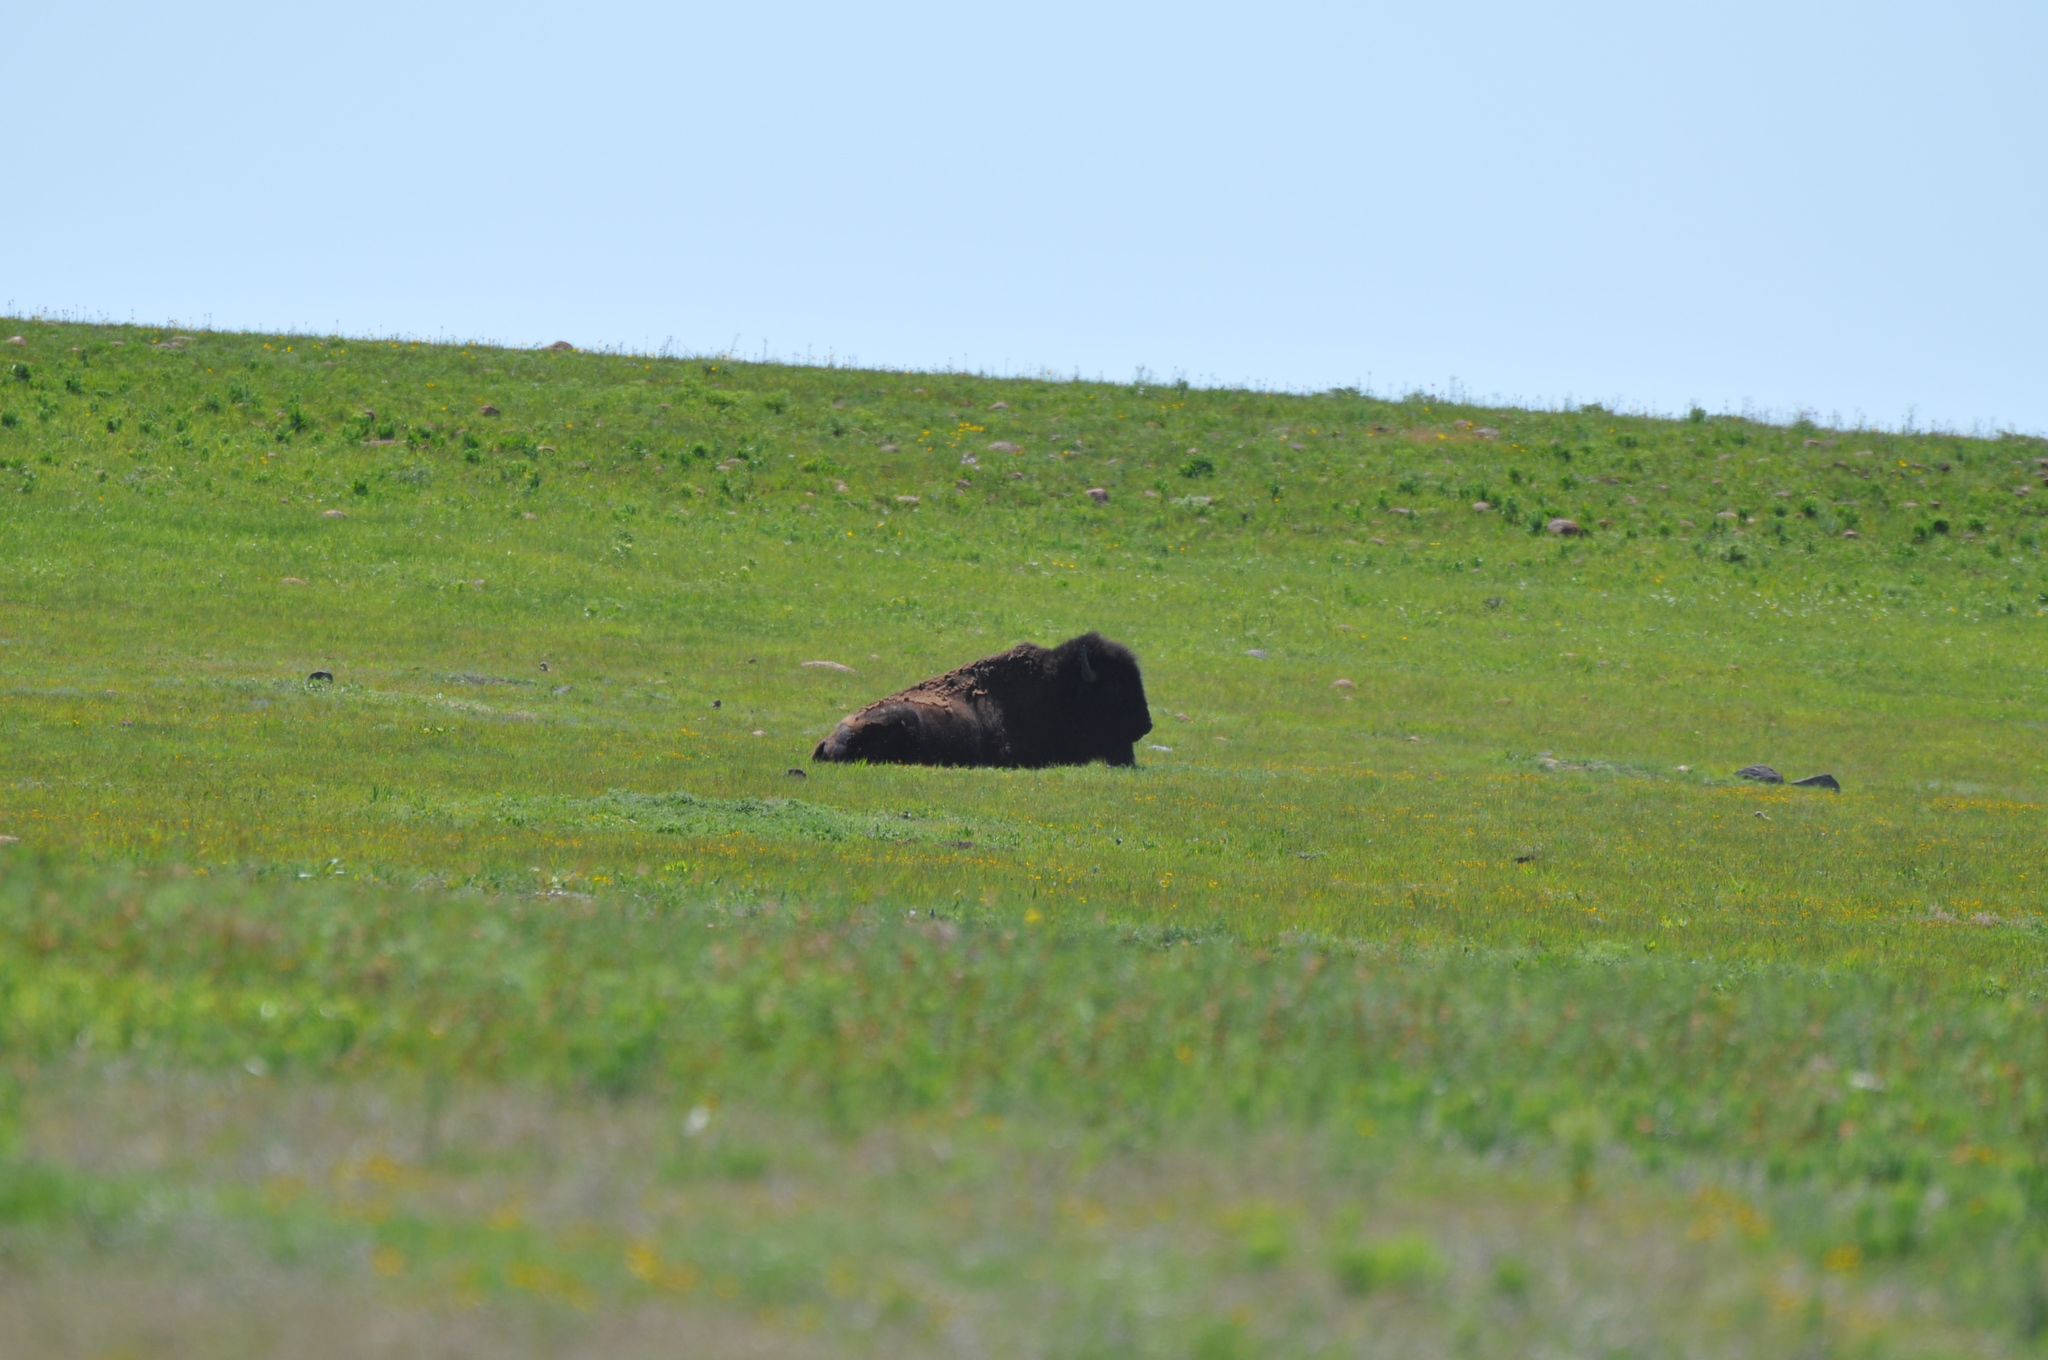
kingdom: Animalia
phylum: Chordata
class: Mammalia
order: Artiodactyla
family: Bovidae
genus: Bison
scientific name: Bison bison
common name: American bison
